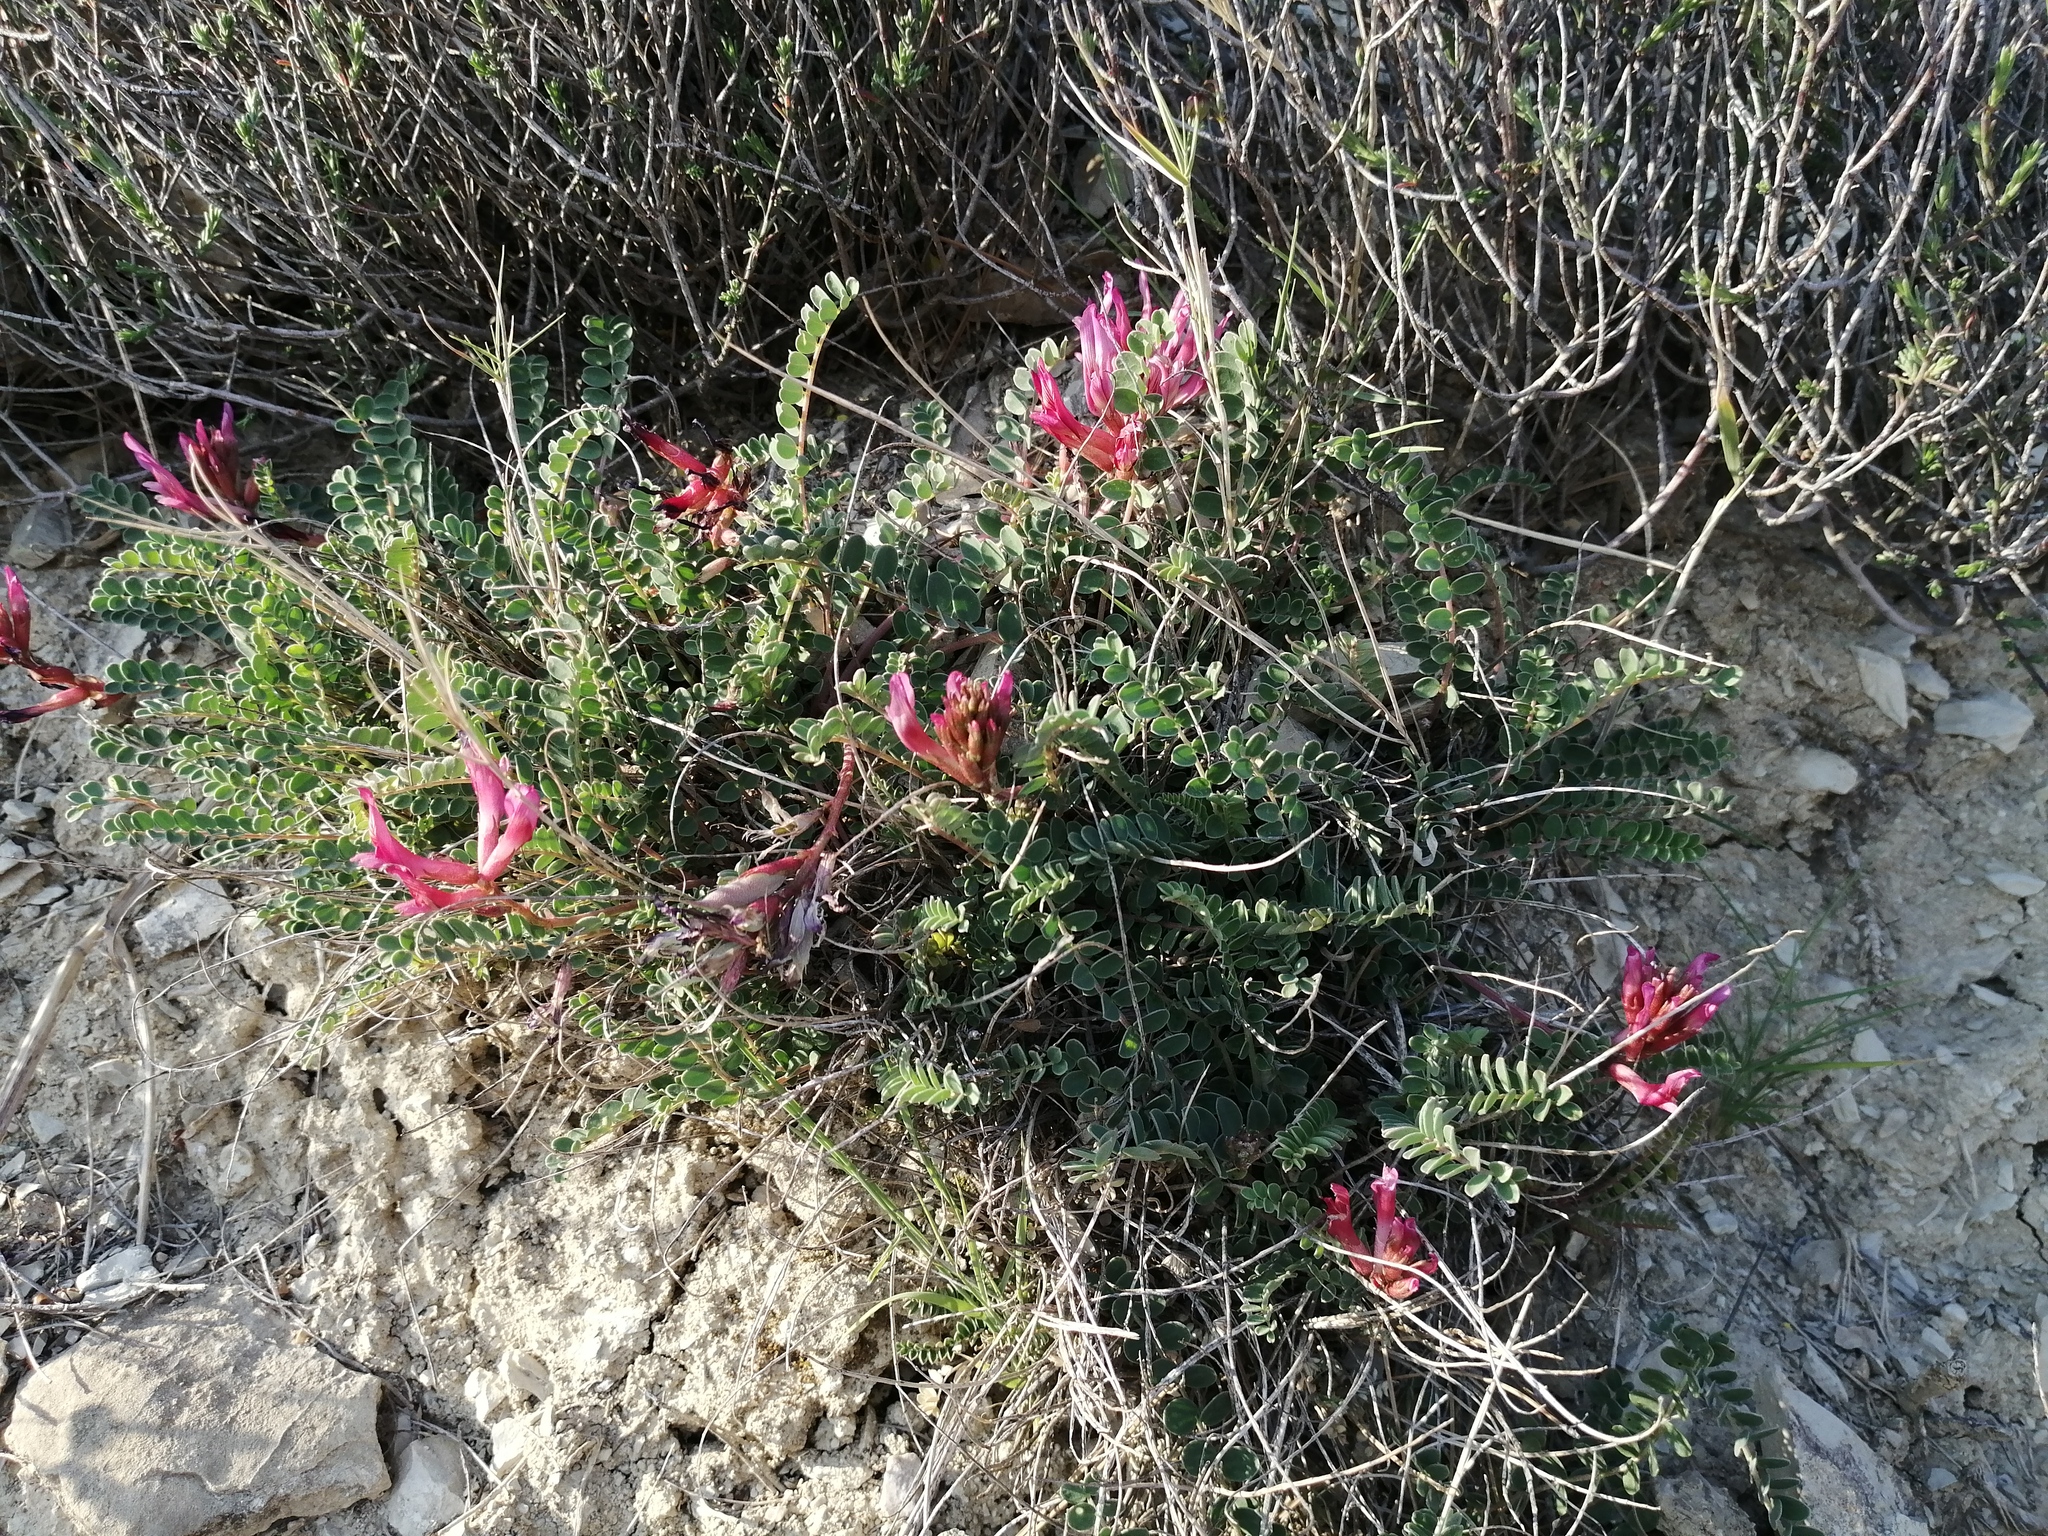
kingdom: Plantae
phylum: Tracheophyta
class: Magnoliopsida
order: Fabales
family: Fabaceae
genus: Astragalus
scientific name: Astragalus monspessulanus
